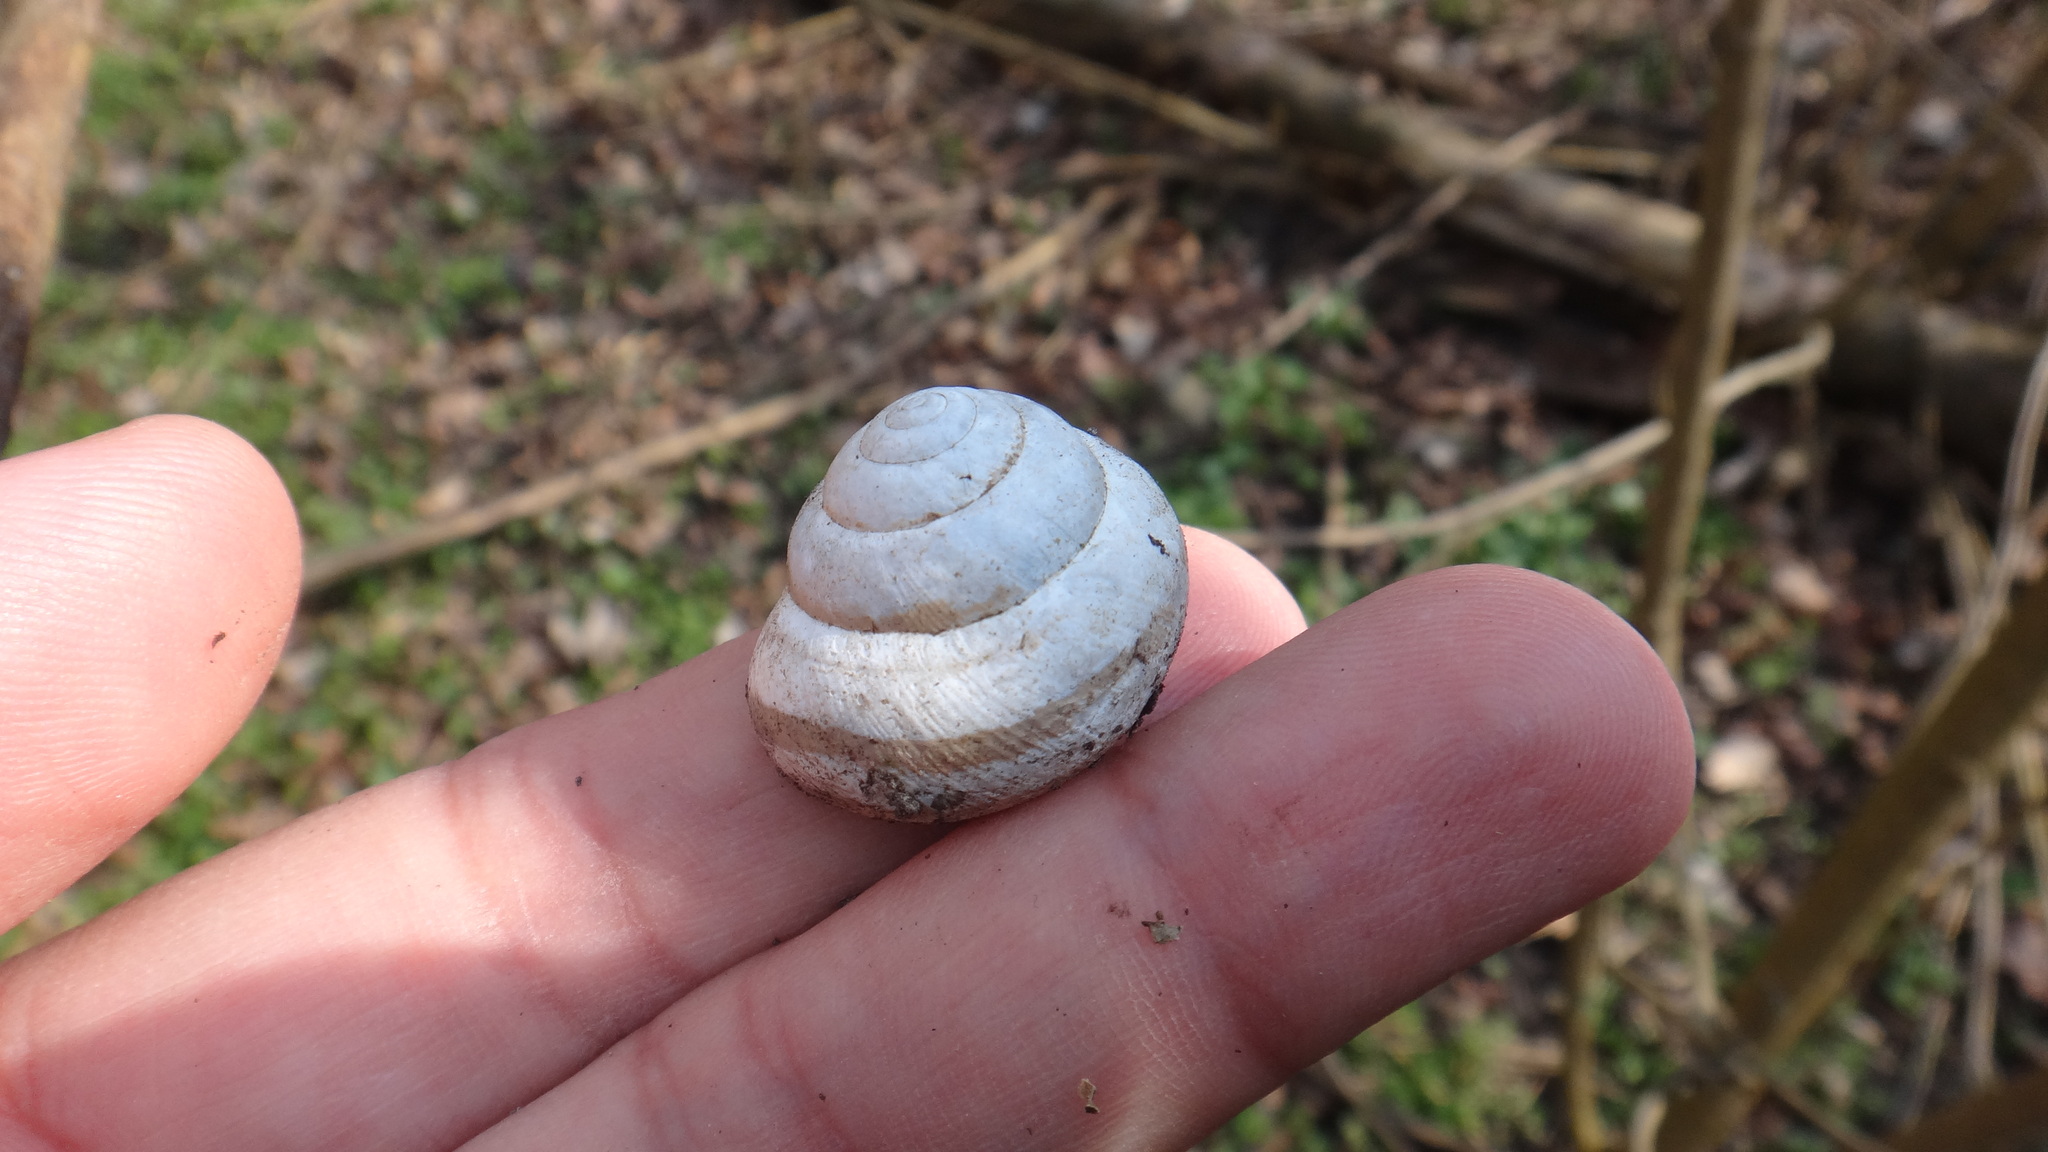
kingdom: Animalia
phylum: Mollusca
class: Gastropoda
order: Stylommatophora
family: Helicidae
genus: Caucasotachea
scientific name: Caucasotachea vindobonensis
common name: European helicid land snail
